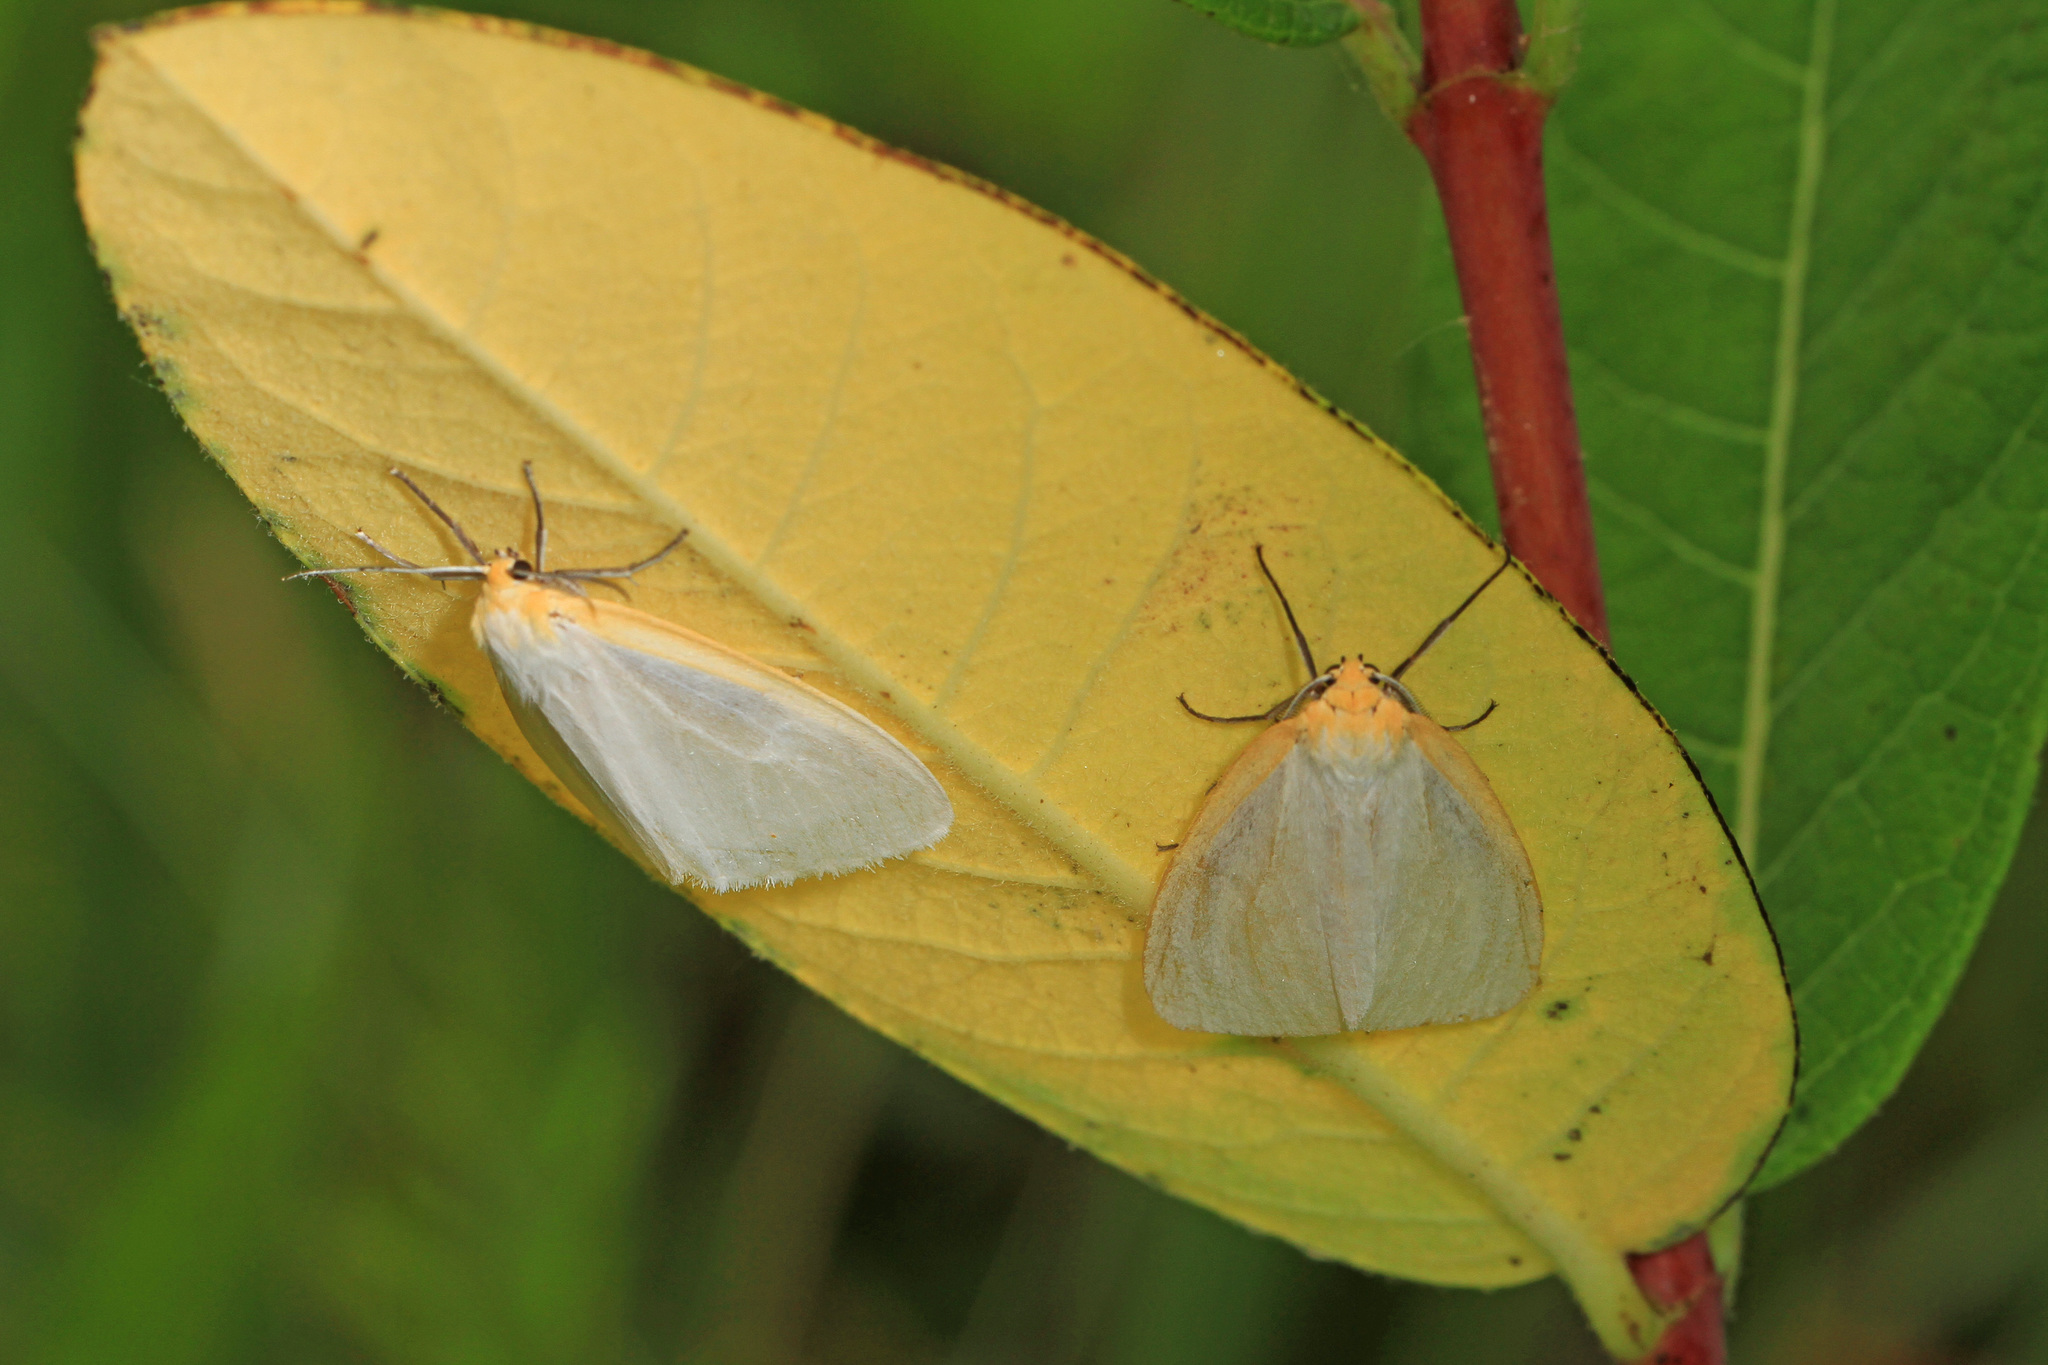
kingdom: Animalia
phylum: Arthropoda
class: Insecta
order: Lepidoptera
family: Erebidae
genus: Cycnia
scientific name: Cycnia tenera
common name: Delicate cycnia moth
